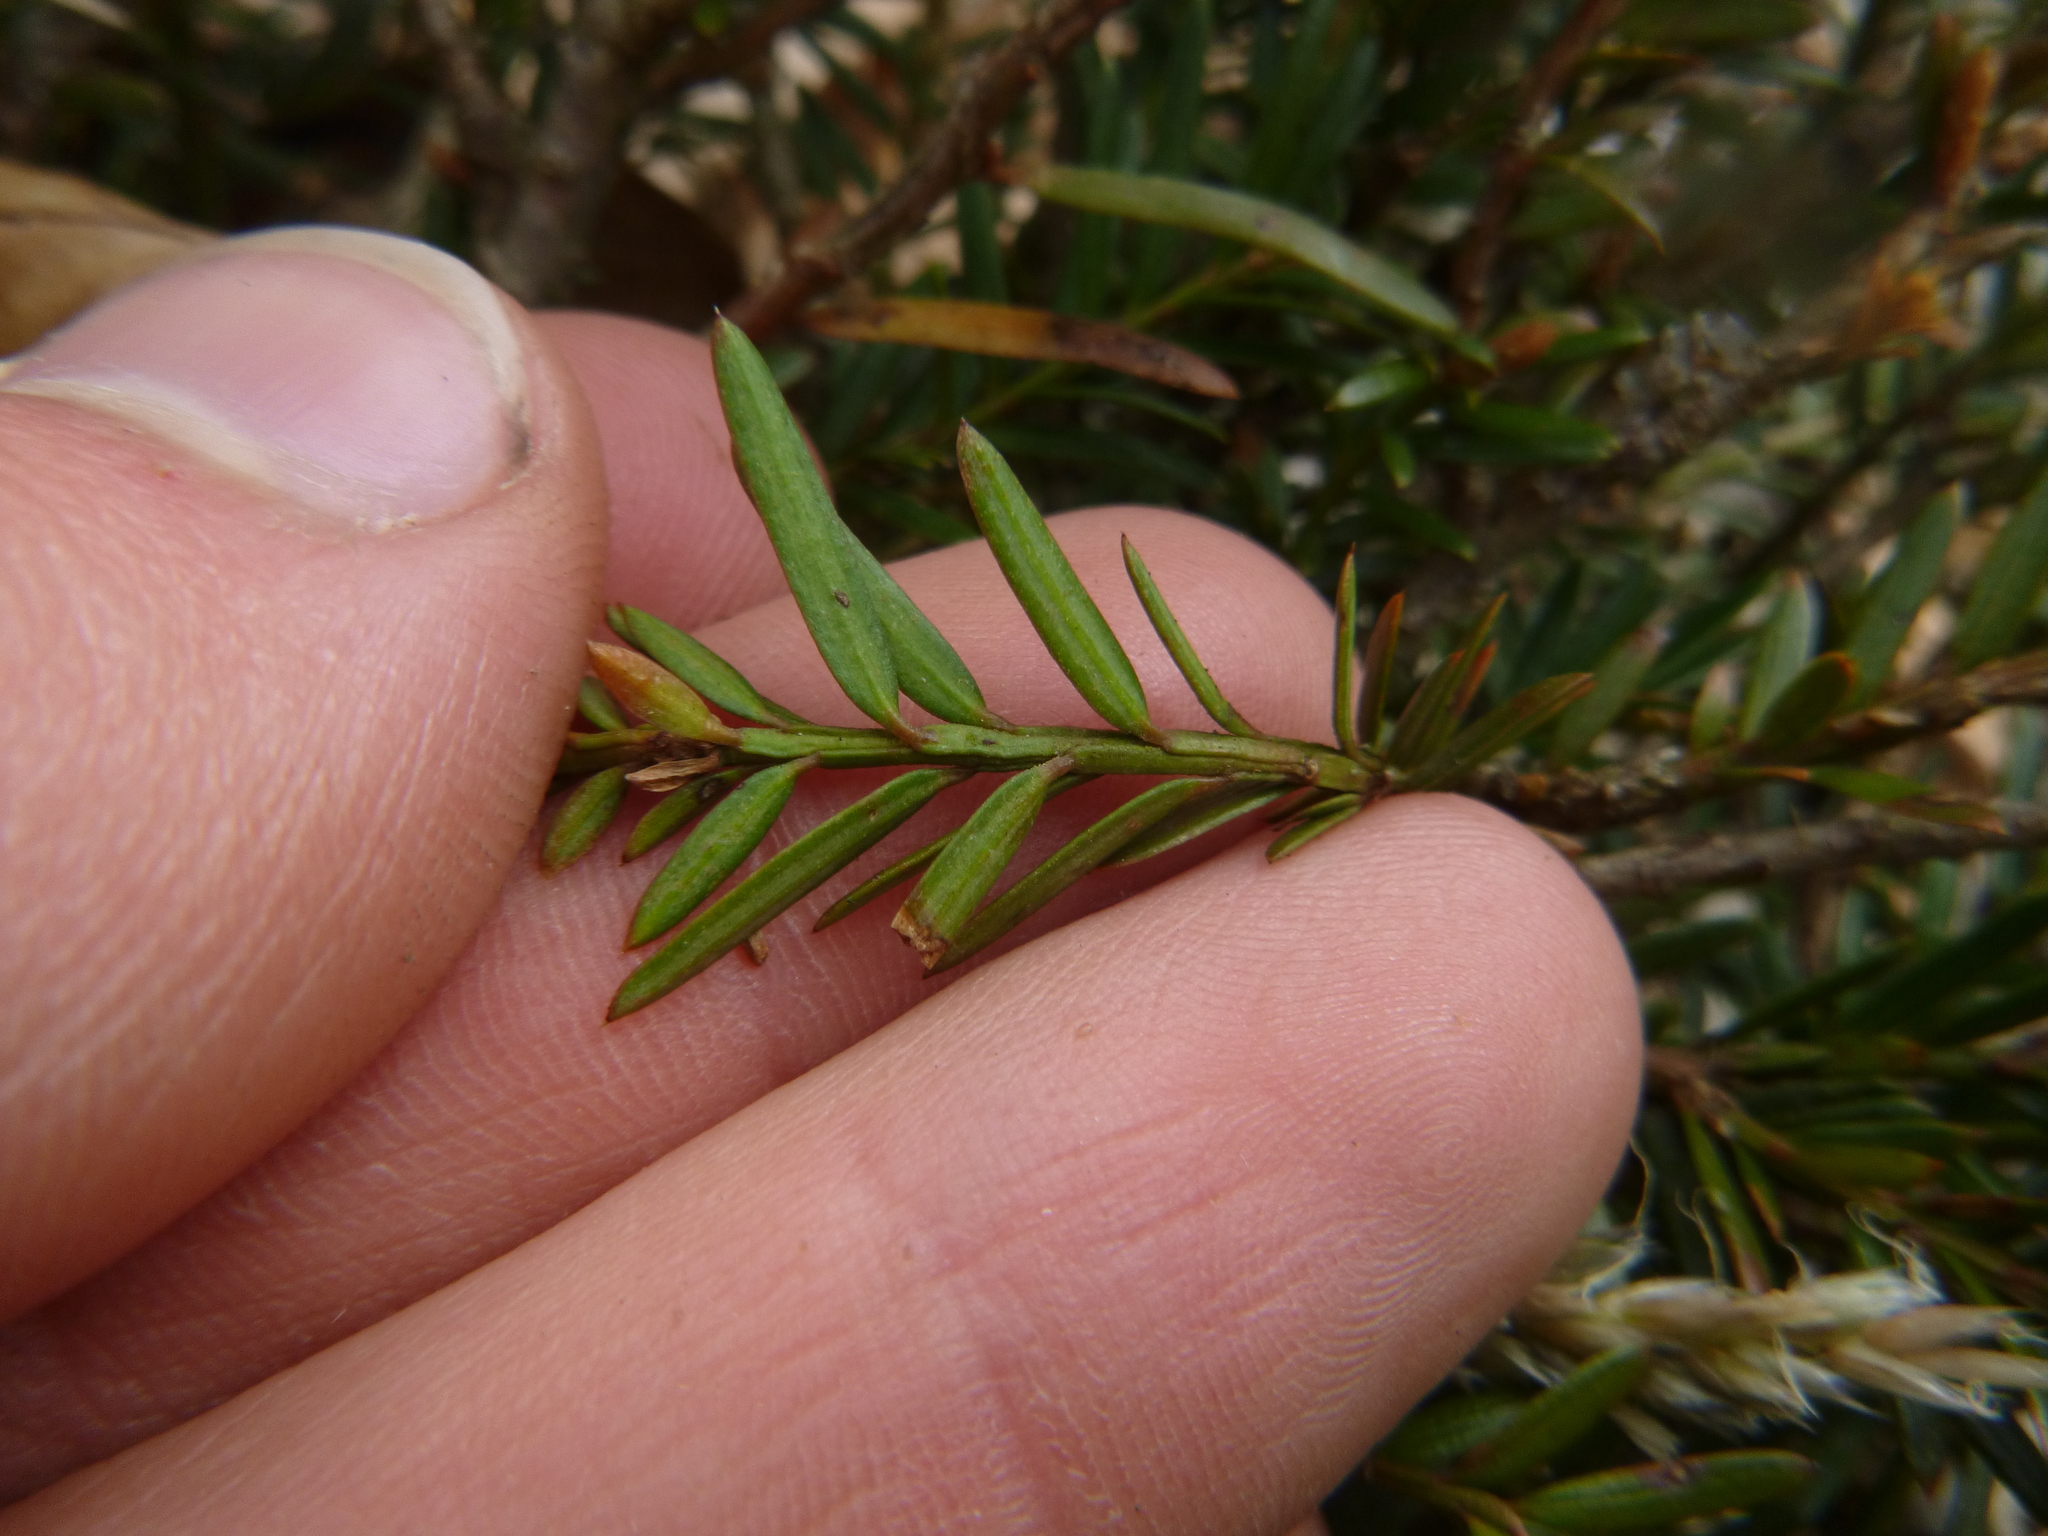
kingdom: Plantae
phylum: Tracheophyta
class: Pinopsida
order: Pinales
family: Taxaceae
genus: Taxus
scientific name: Taxus baccata
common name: Yew
